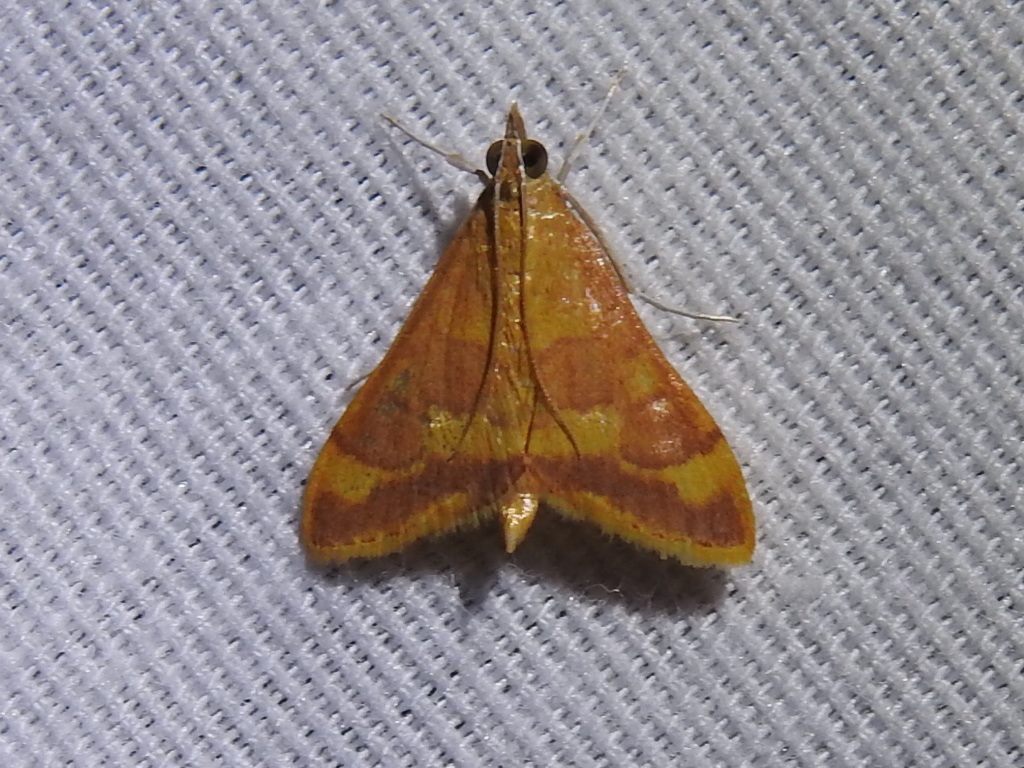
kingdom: Animalia
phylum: Arthropoda
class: Insecta
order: Lepidoptera
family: Crambidae
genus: Pyrausta
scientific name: Pyrausta pseudonythesalis
